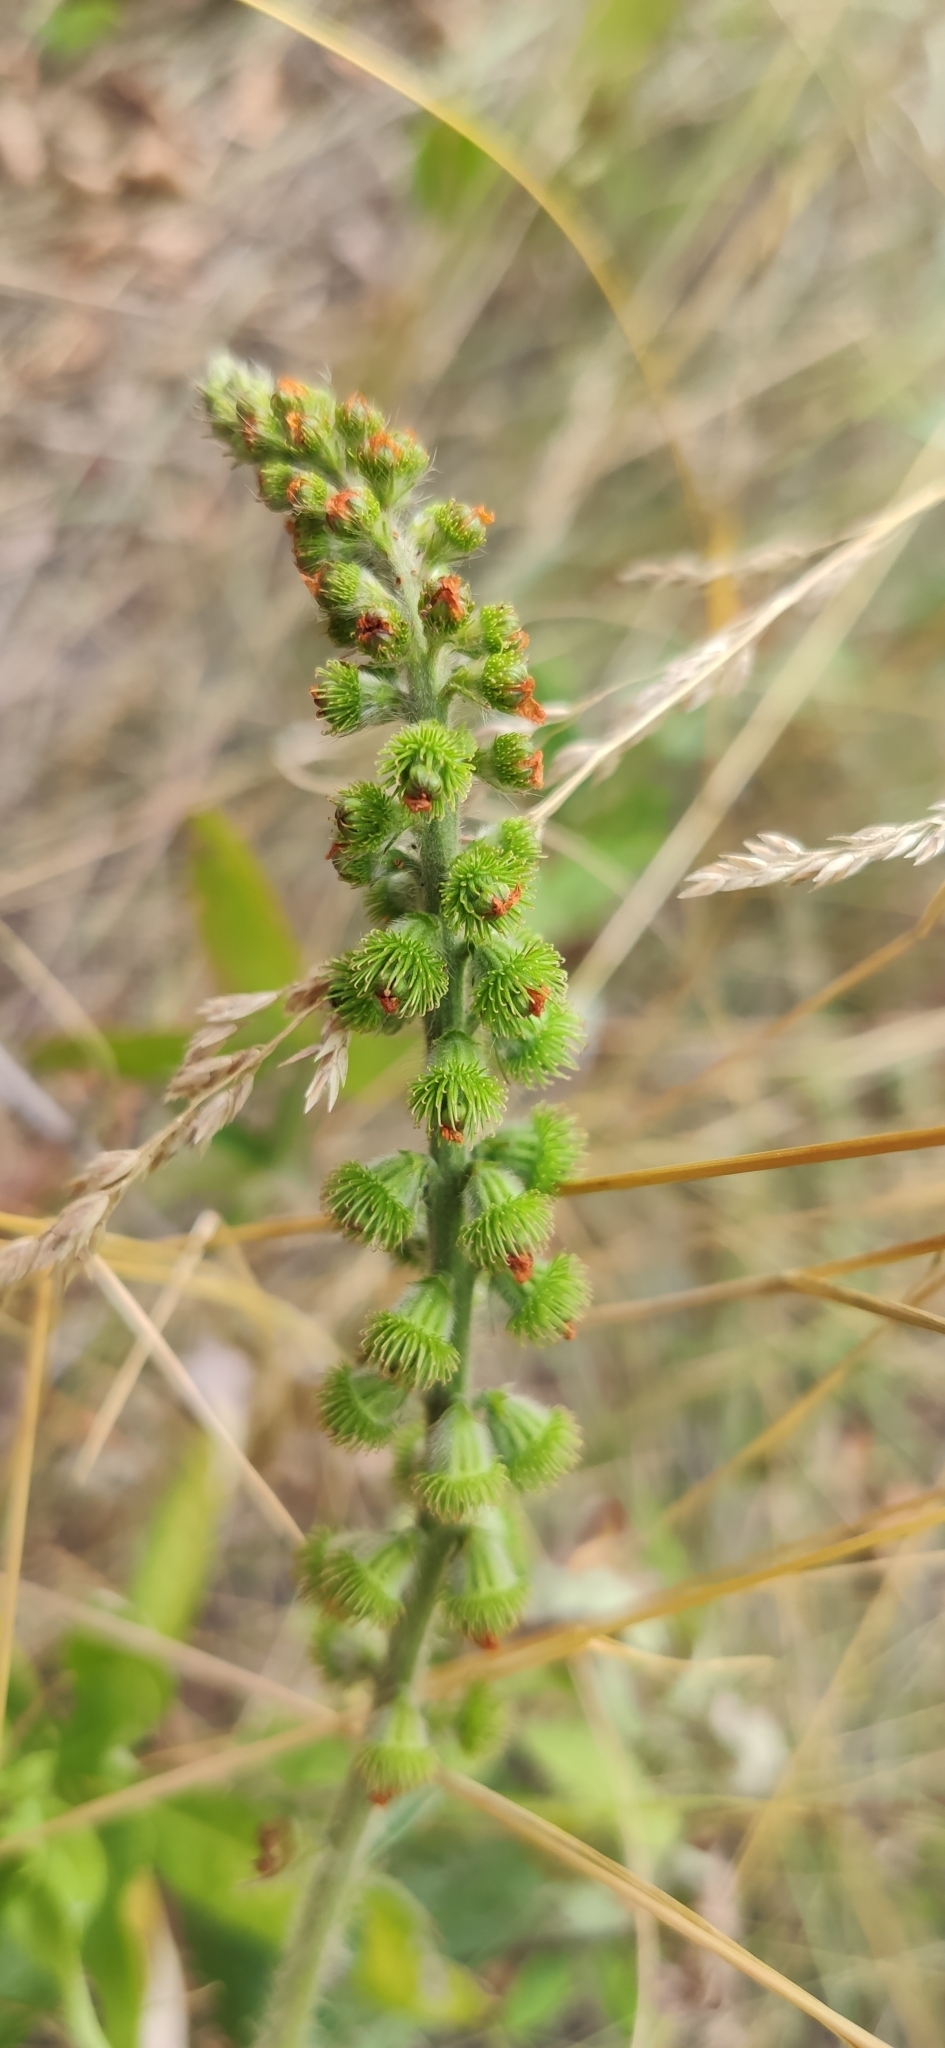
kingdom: Plantae
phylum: Tracheophyta
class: Magnoliopsida
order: Rosales
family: Rosaceae
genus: Agrimonia
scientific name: Agrimonia eupatoria
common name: Agrimony
